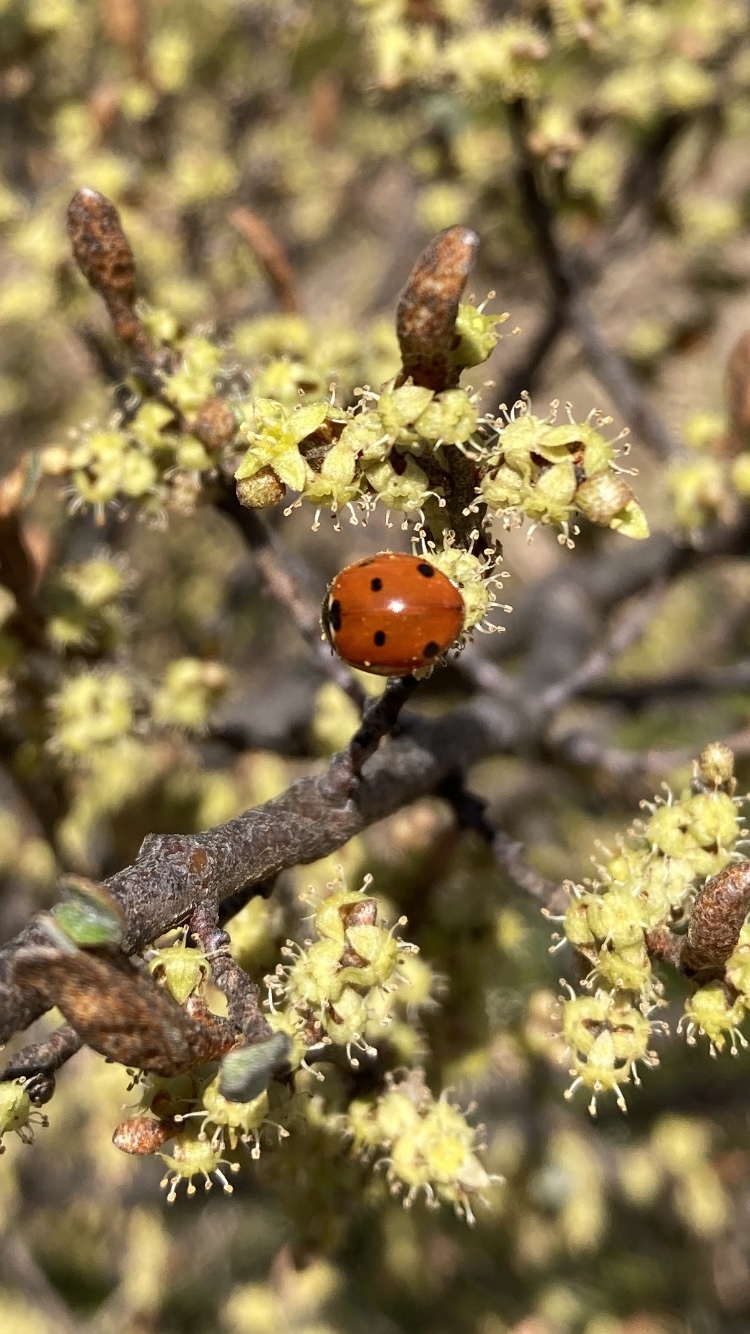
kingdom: Animalia
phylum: Arthropoda
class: Insecta
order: Coleoptera
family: Coccinellidae
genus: Coccinella
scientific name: Coccinella septempunctata
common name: Sevenspotted lady beetle
